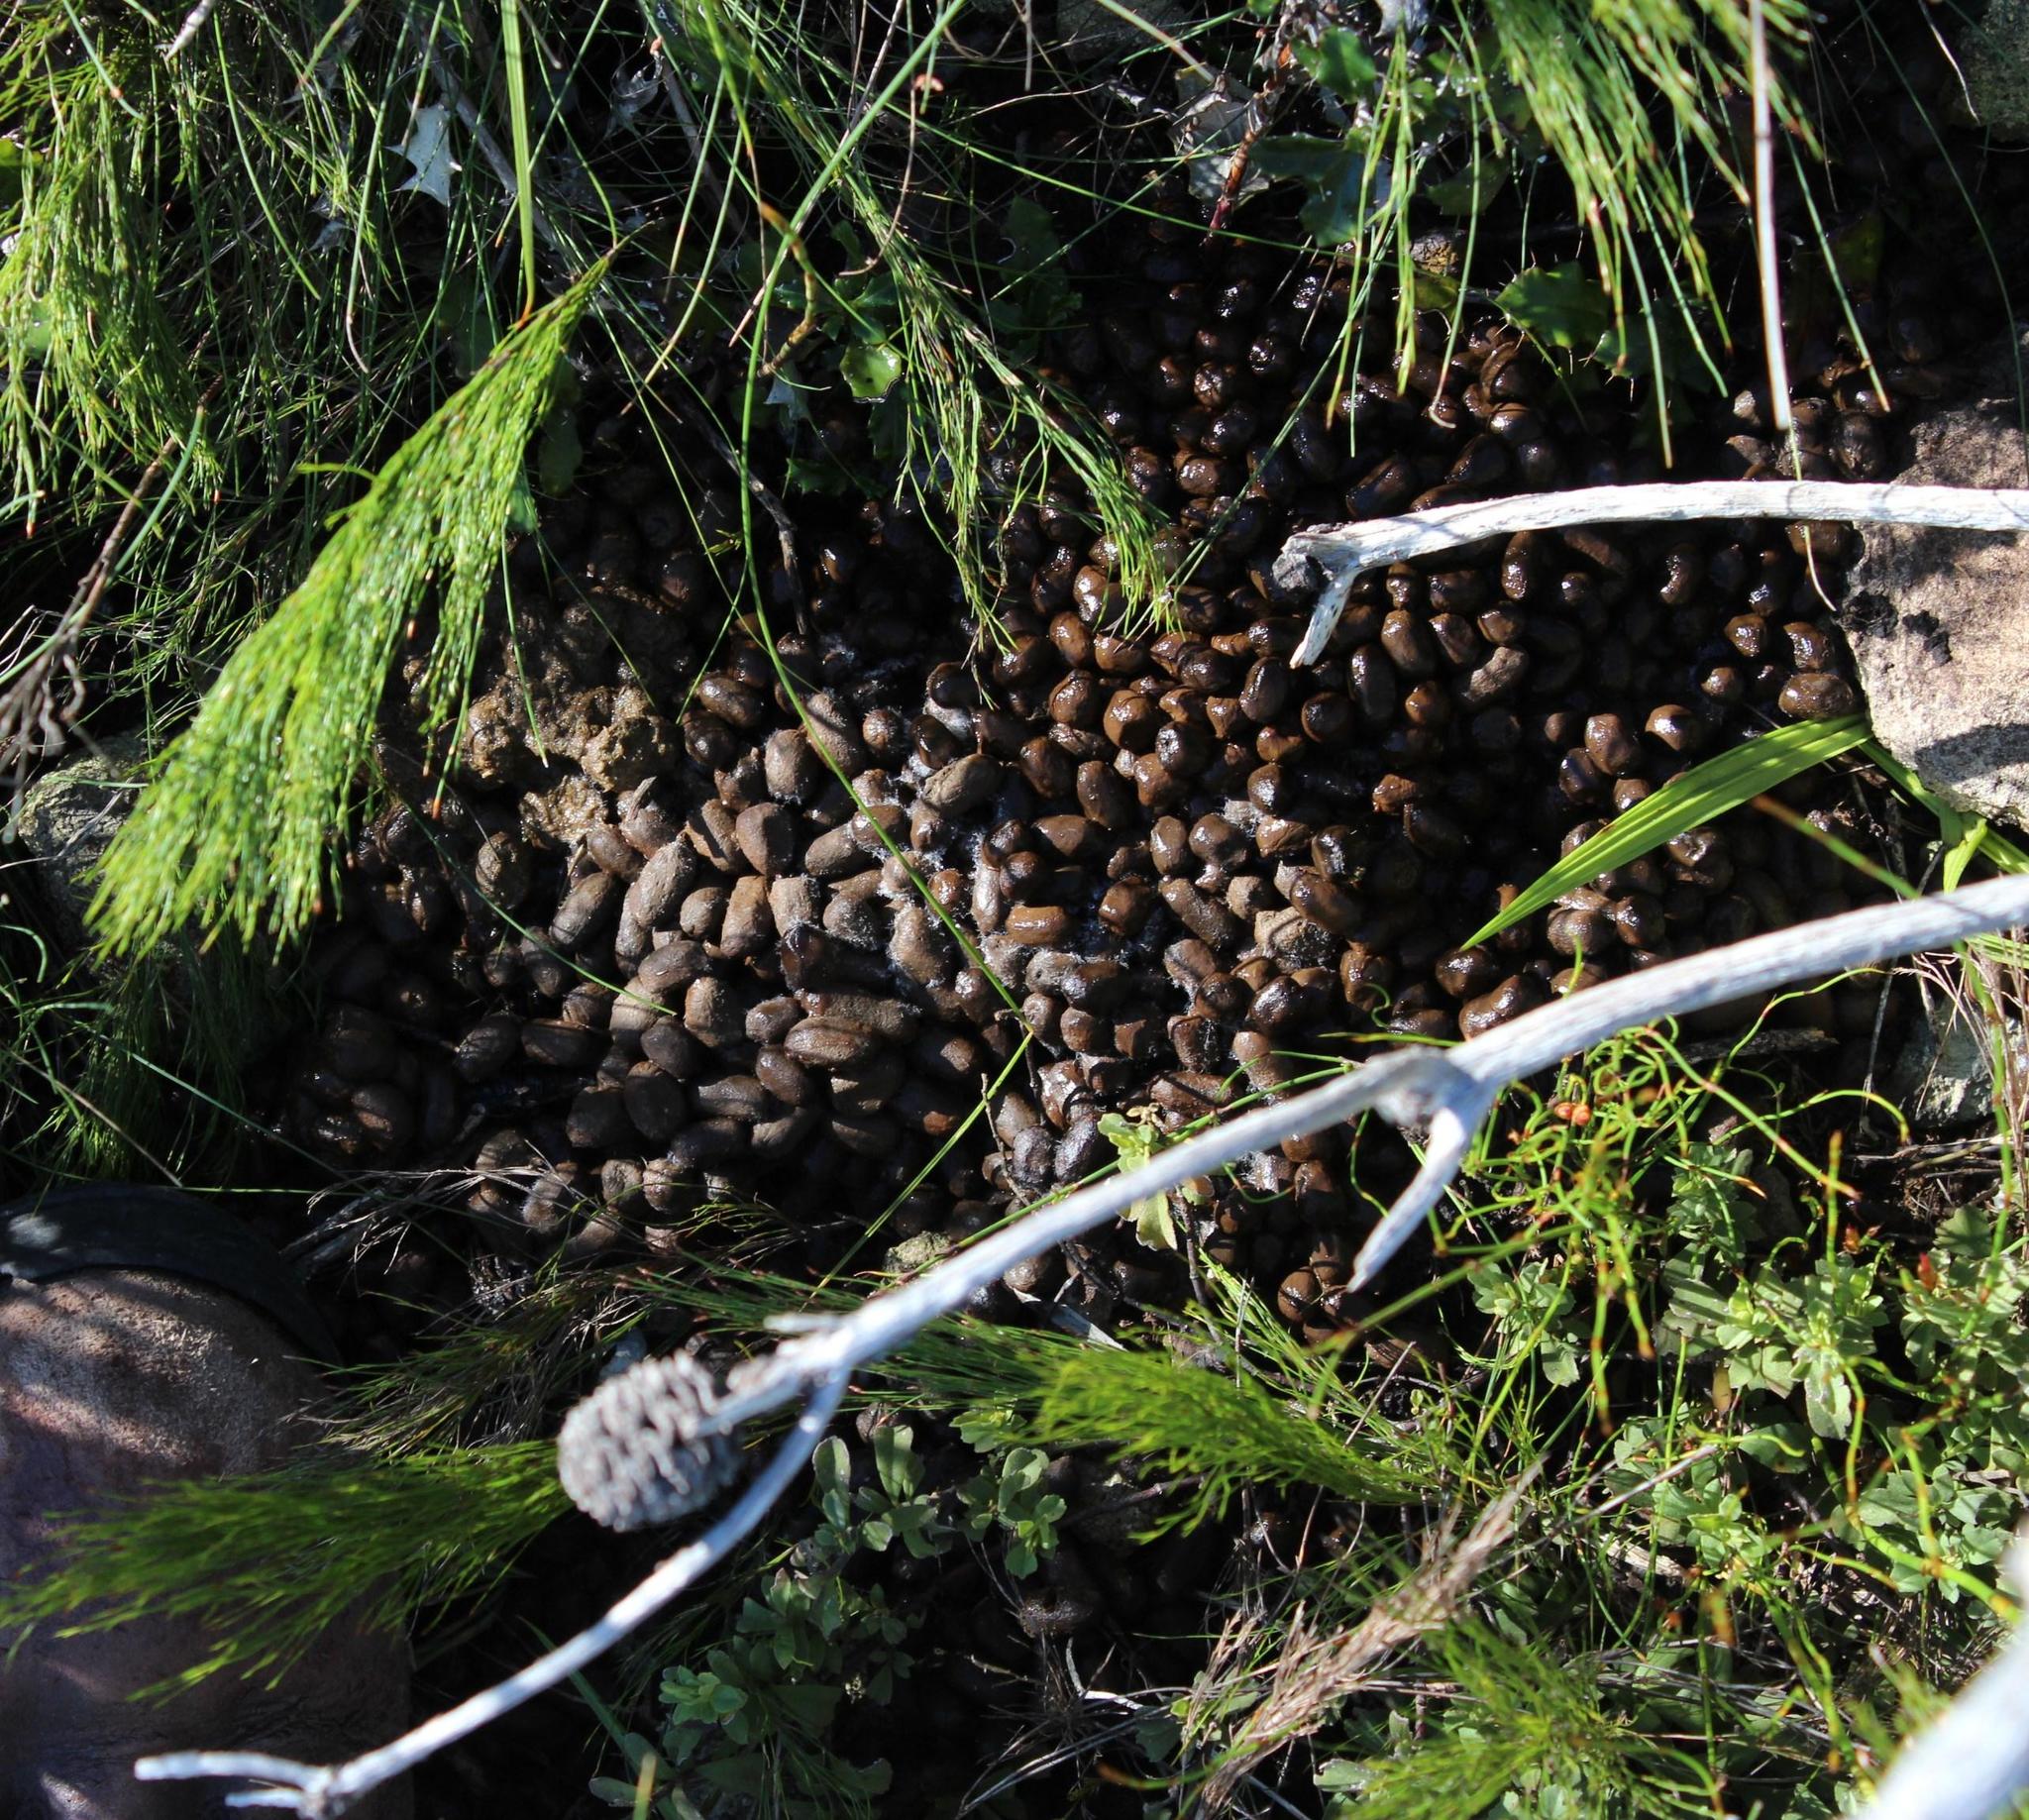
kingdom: Animalia
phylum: Chordata
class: Mammalia
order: Artiodactyla
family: Bovidae
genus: Sylvicapra
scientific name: Sylvicapra grimmia
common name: Bush duiker
